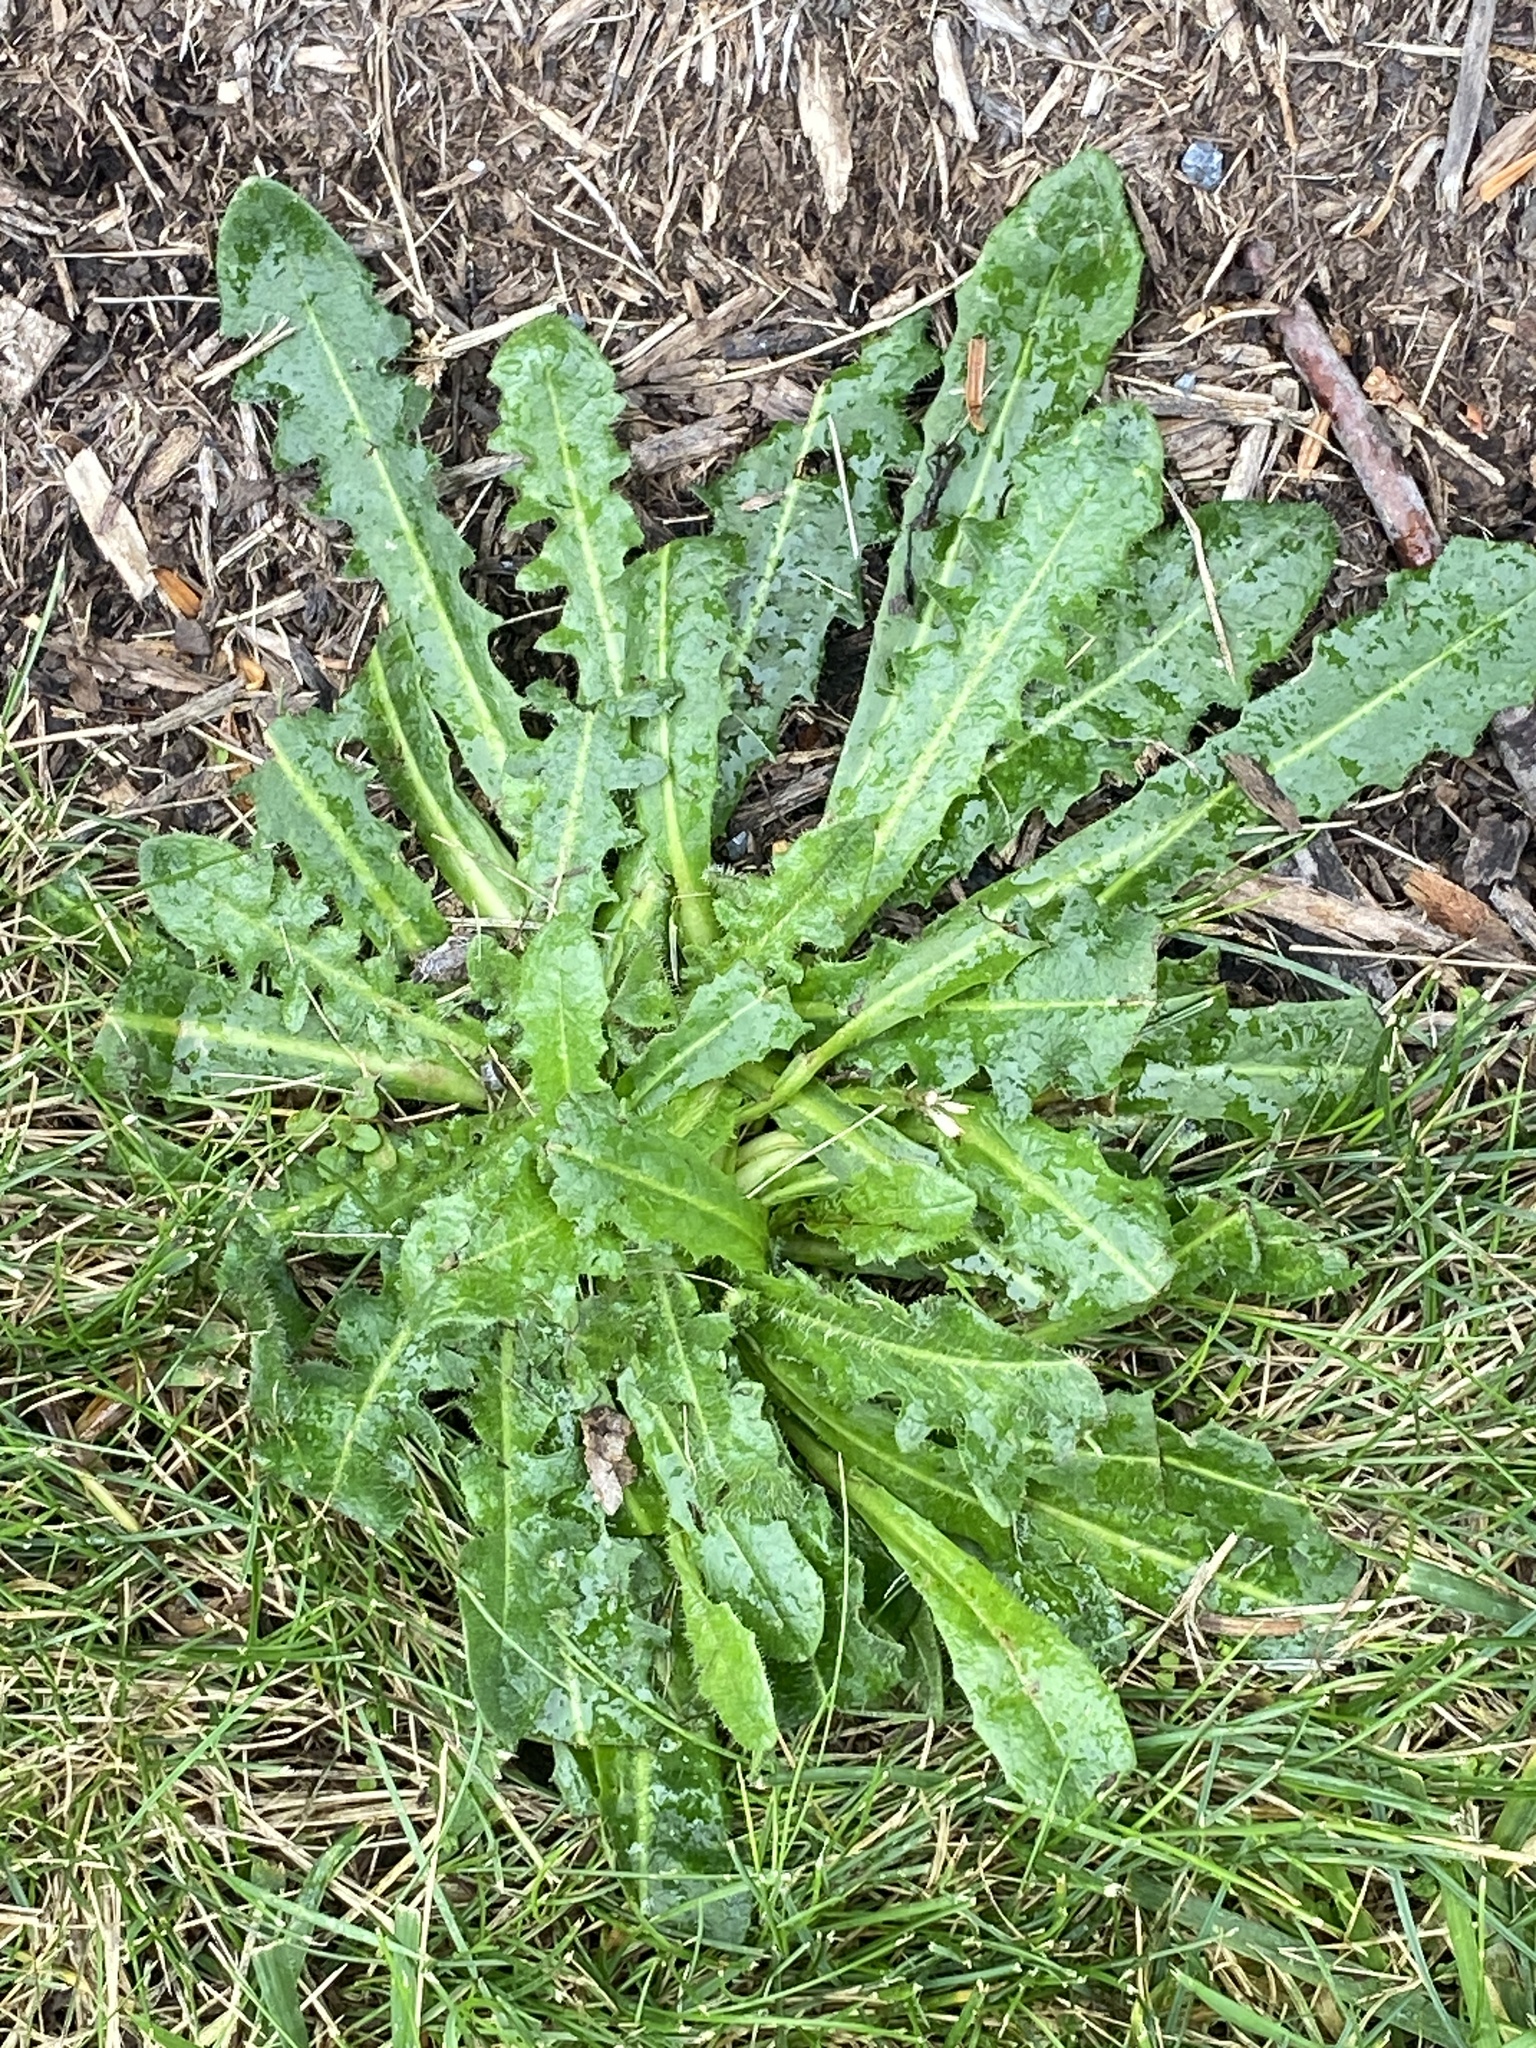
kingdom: Plantae
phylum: Tracheophyta
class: Magnoliopsida
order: Asterales
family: Asteraceae
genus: Hypochaeris
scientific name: Hypochaeris radicata
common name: Flatweed
